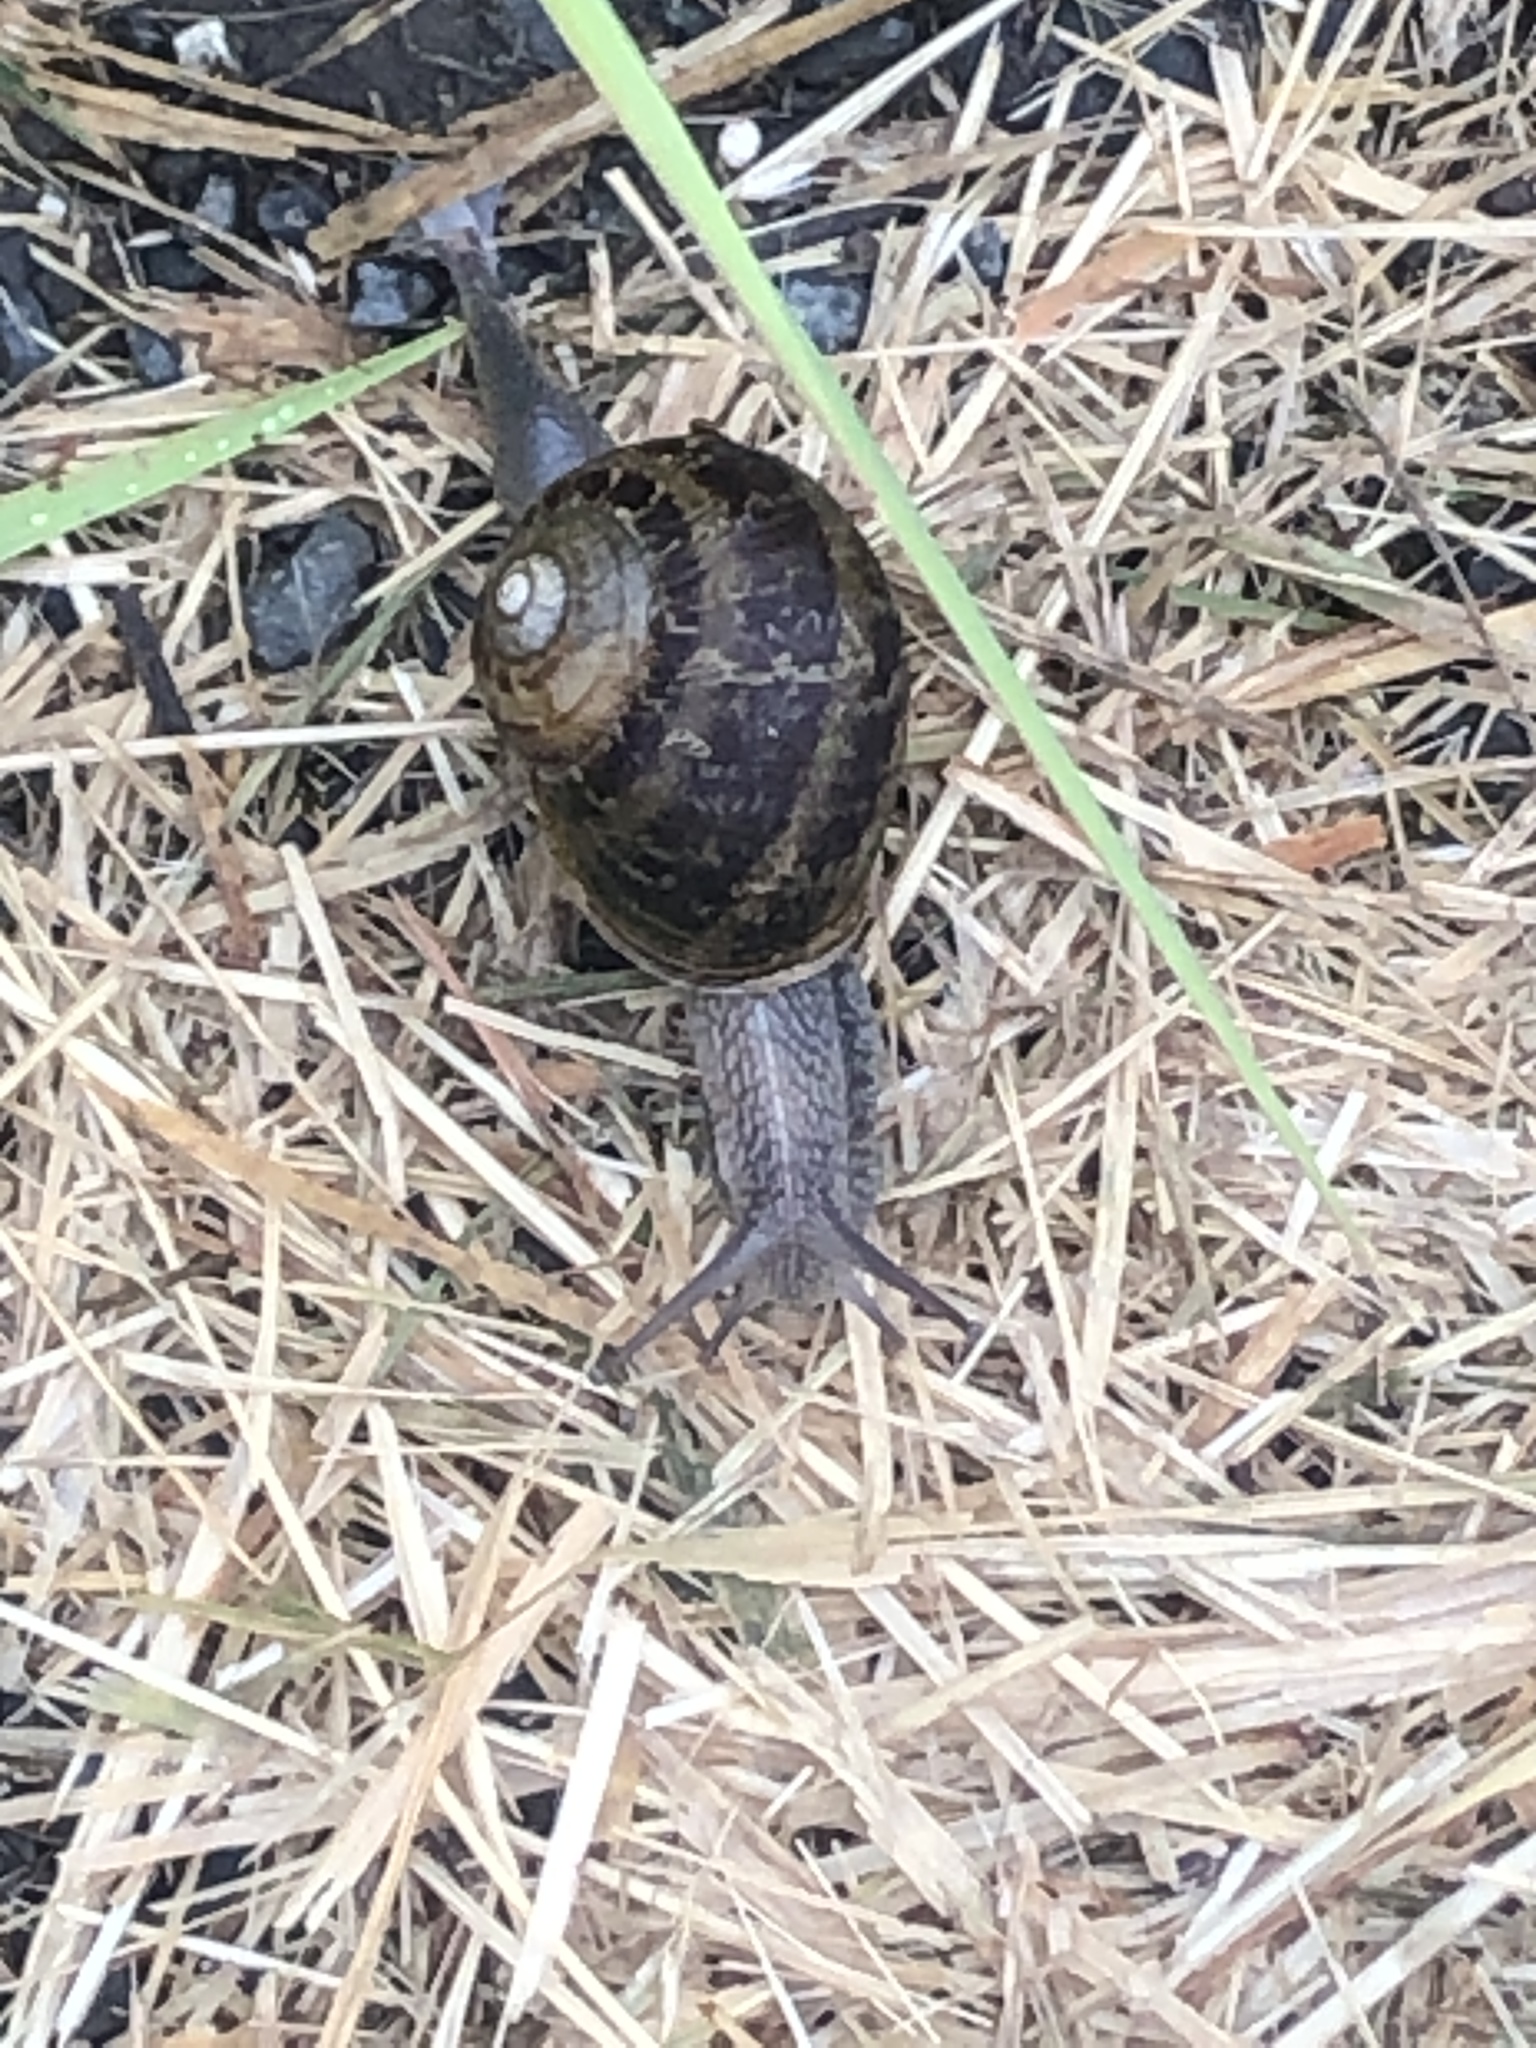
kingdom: Animalia
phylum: Mollusca
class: Gastropoda
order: Stylommatophora
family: Helicidae
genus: Cornu
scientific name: Cornu aspersum
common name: Brown garden snail
